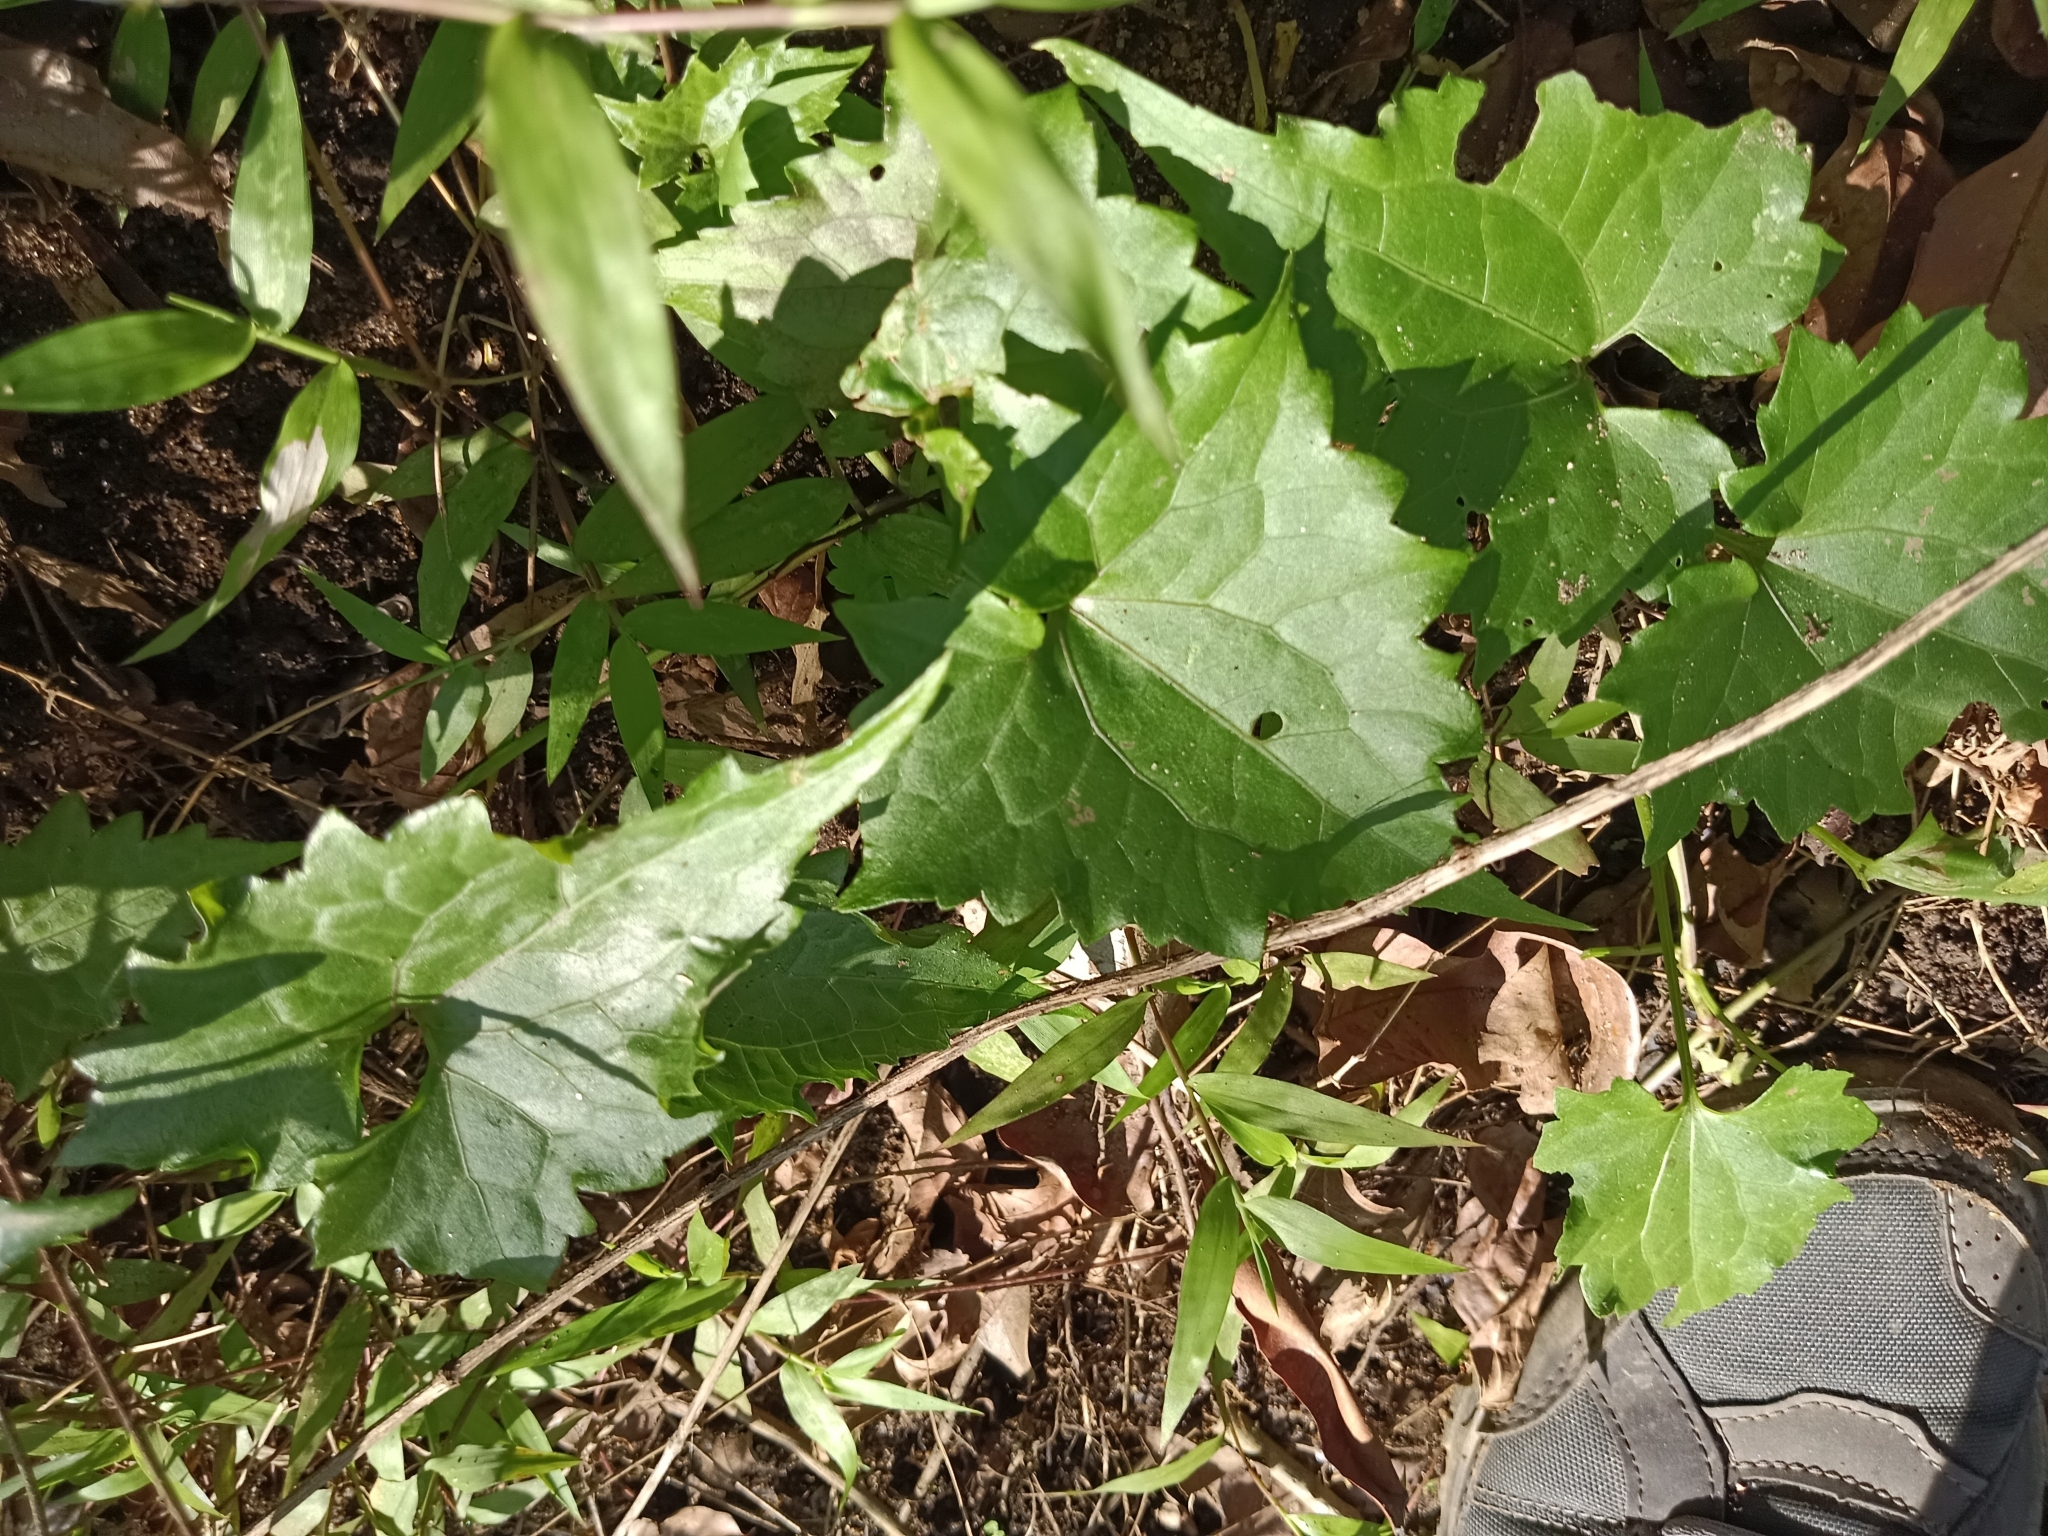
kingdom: Plantae
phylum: Tracheophyta
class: Magnoliopsida
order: Asterales
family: Asteraceae
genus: Mikania
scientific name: Mikania micrantha
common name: Mile-a-minute
